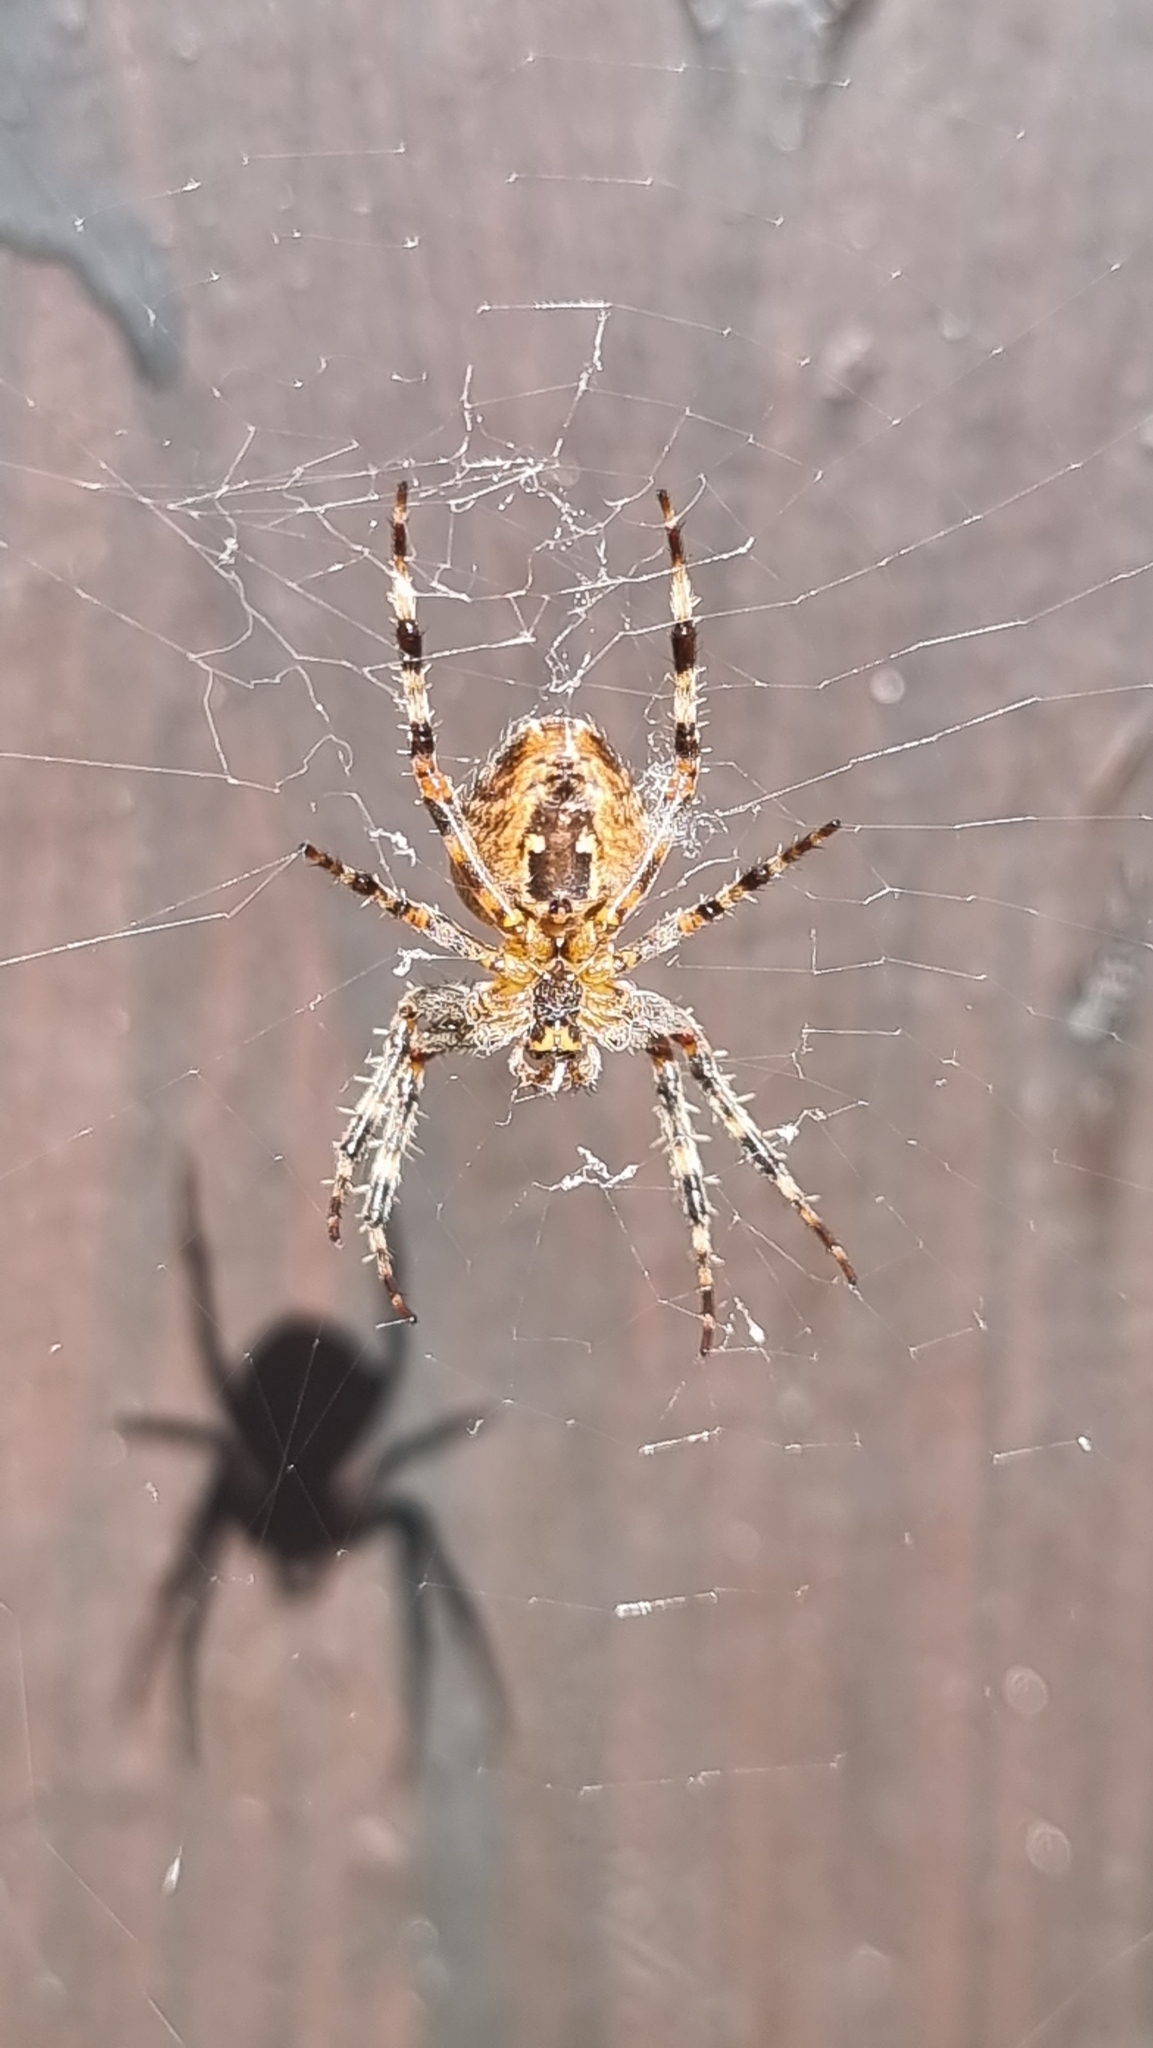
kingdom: Animalia
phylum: Arthropoda
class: Arachnida
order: Araneae
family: Araneidae
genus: Araneus
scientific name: Araneus diadematus
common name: Cross orbweaver
